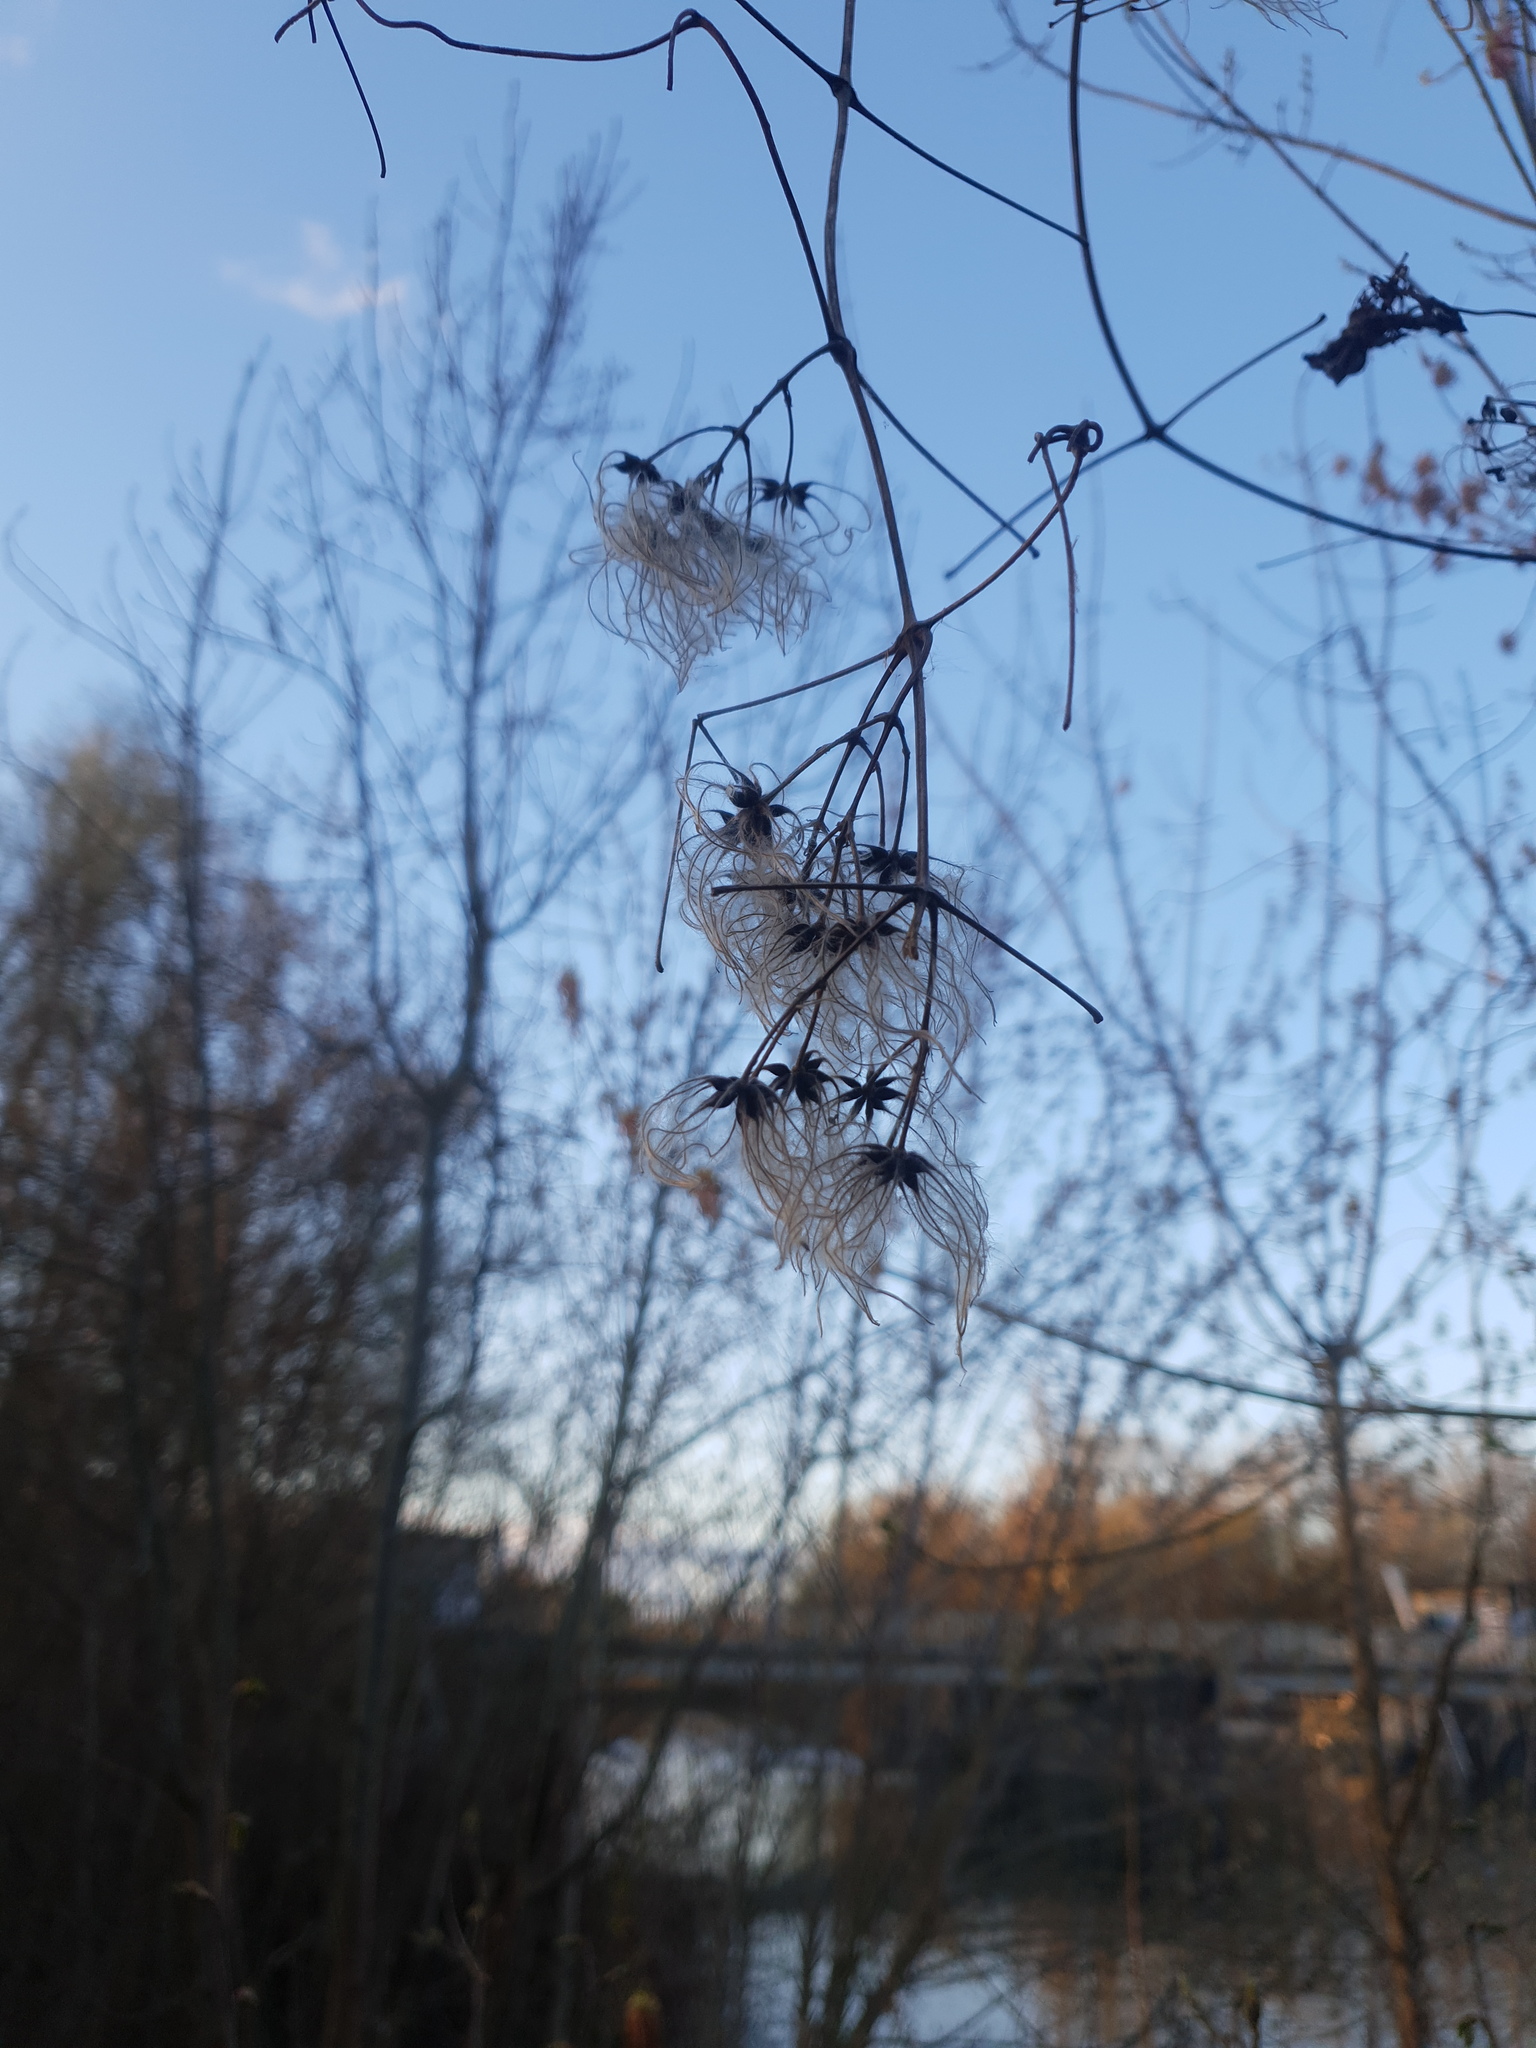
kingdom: Plantae
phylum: Tracheophyta
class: Magnoliopsida
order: Ranunculales
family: Ranunculaceae
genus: Clematis
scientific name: Clematis vitalba
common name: Evergreen clematis
